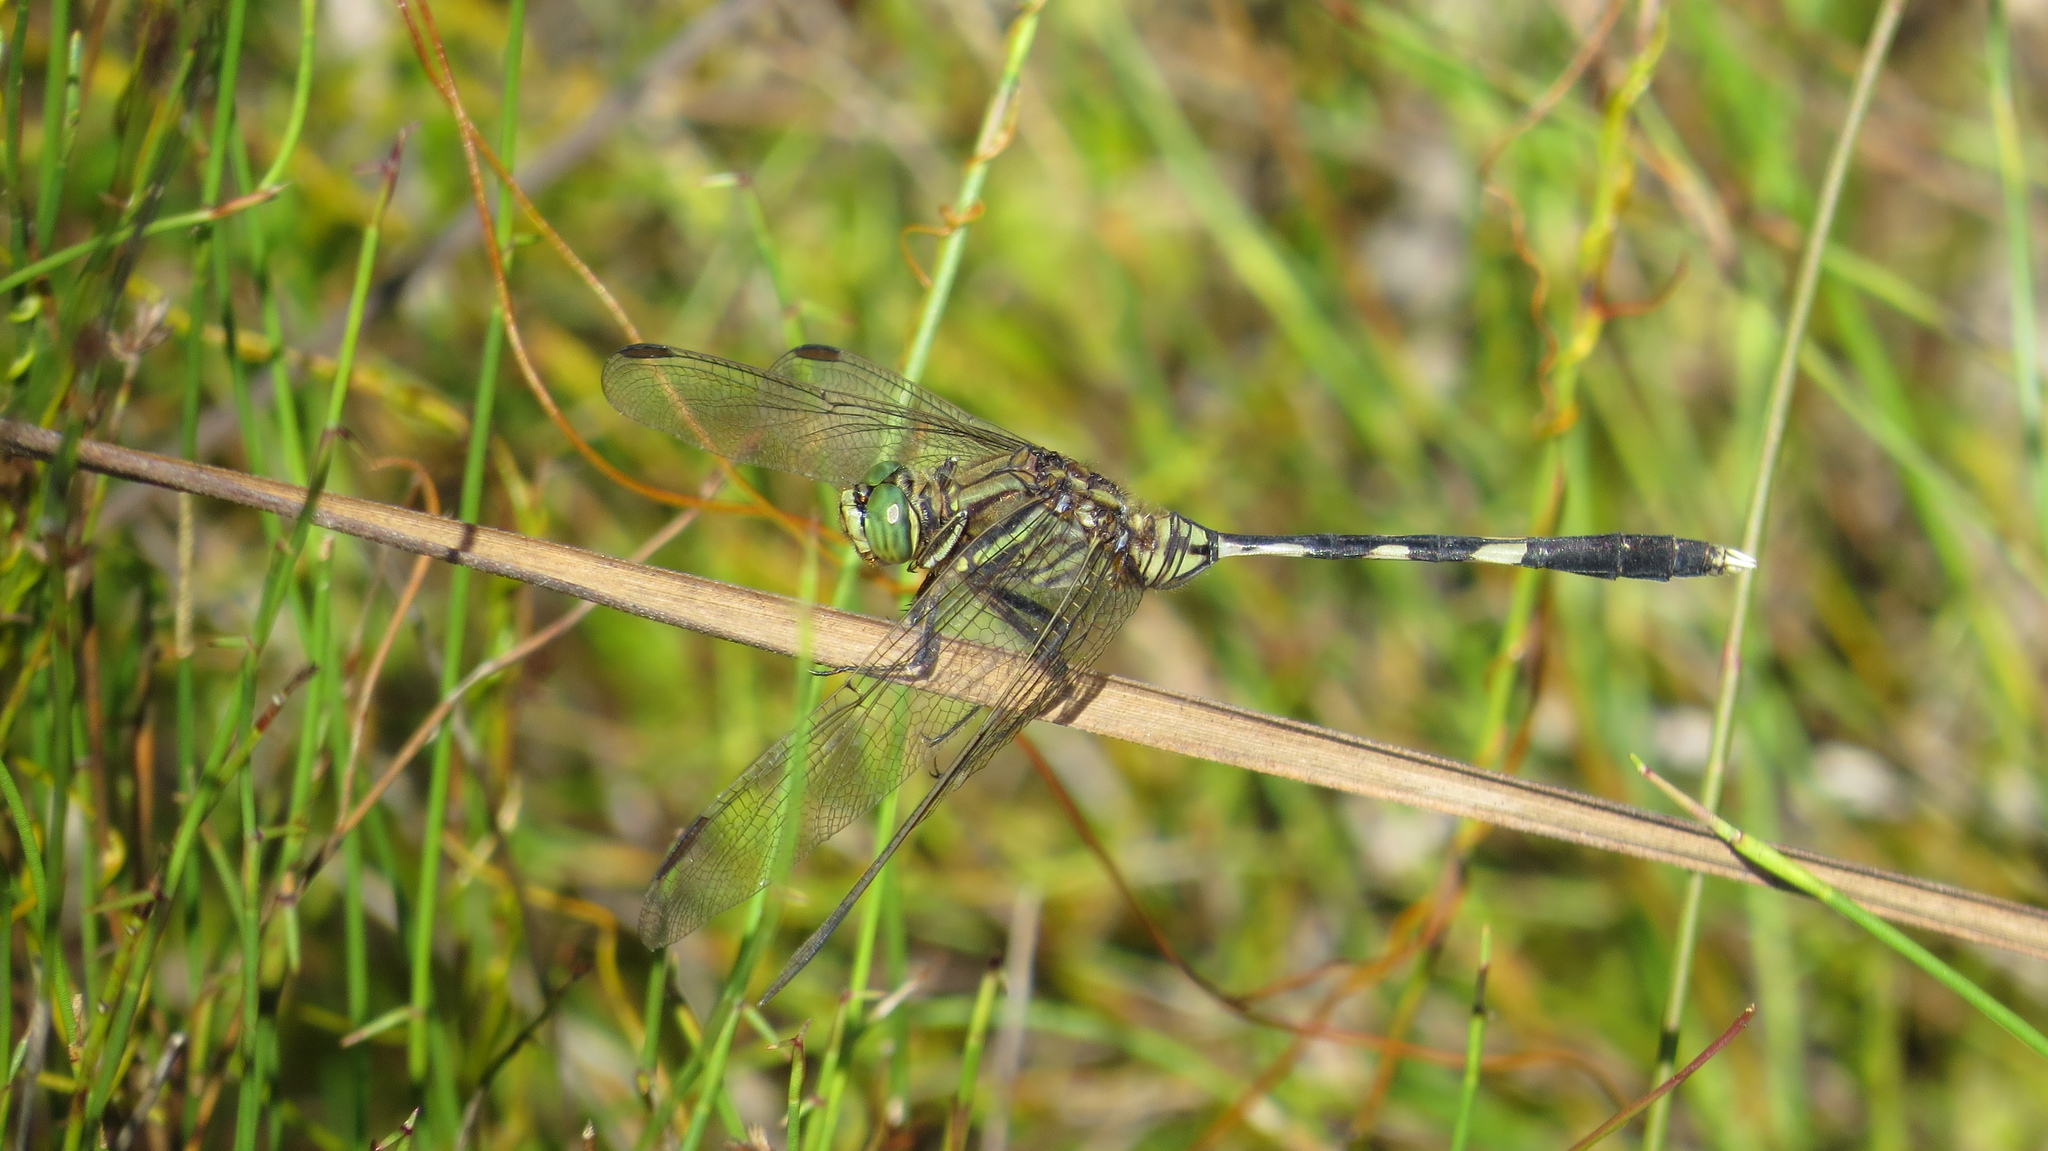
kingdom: Animalia
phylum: Arthropoda
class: Insecta
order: Odonata
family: Libellulidae
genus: Orthetrum
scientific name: Orthetrum sabina
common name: Slender skimmer
